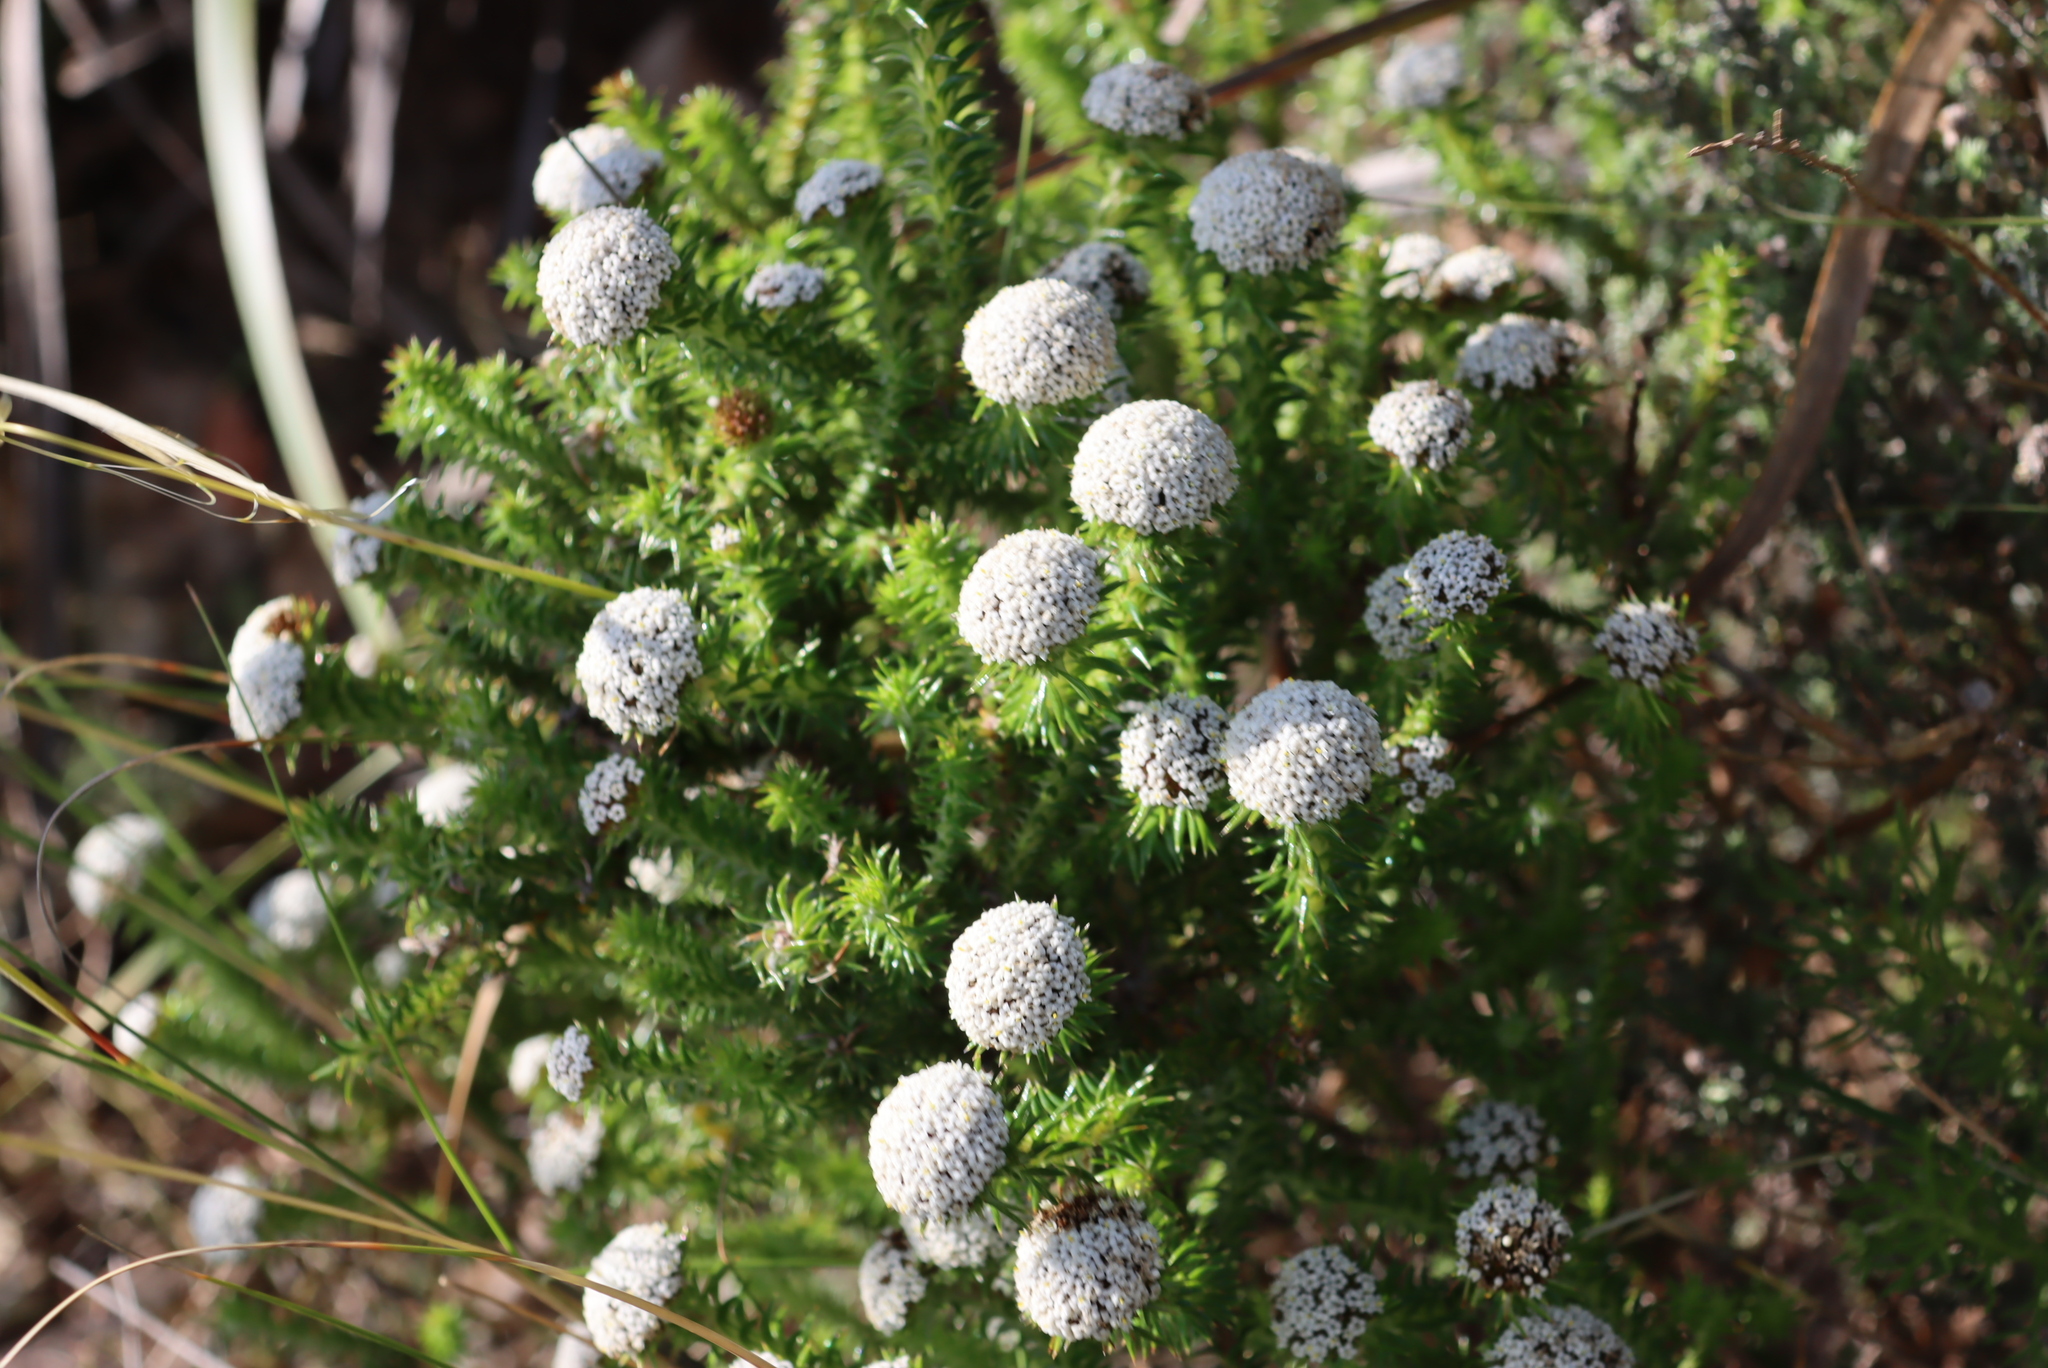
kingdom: Plantae
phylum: Tracheophyta
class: Magnoliopsida
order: Asterales
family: Asteraceae
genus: Stoebe
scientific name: Stoebe aethiopica
